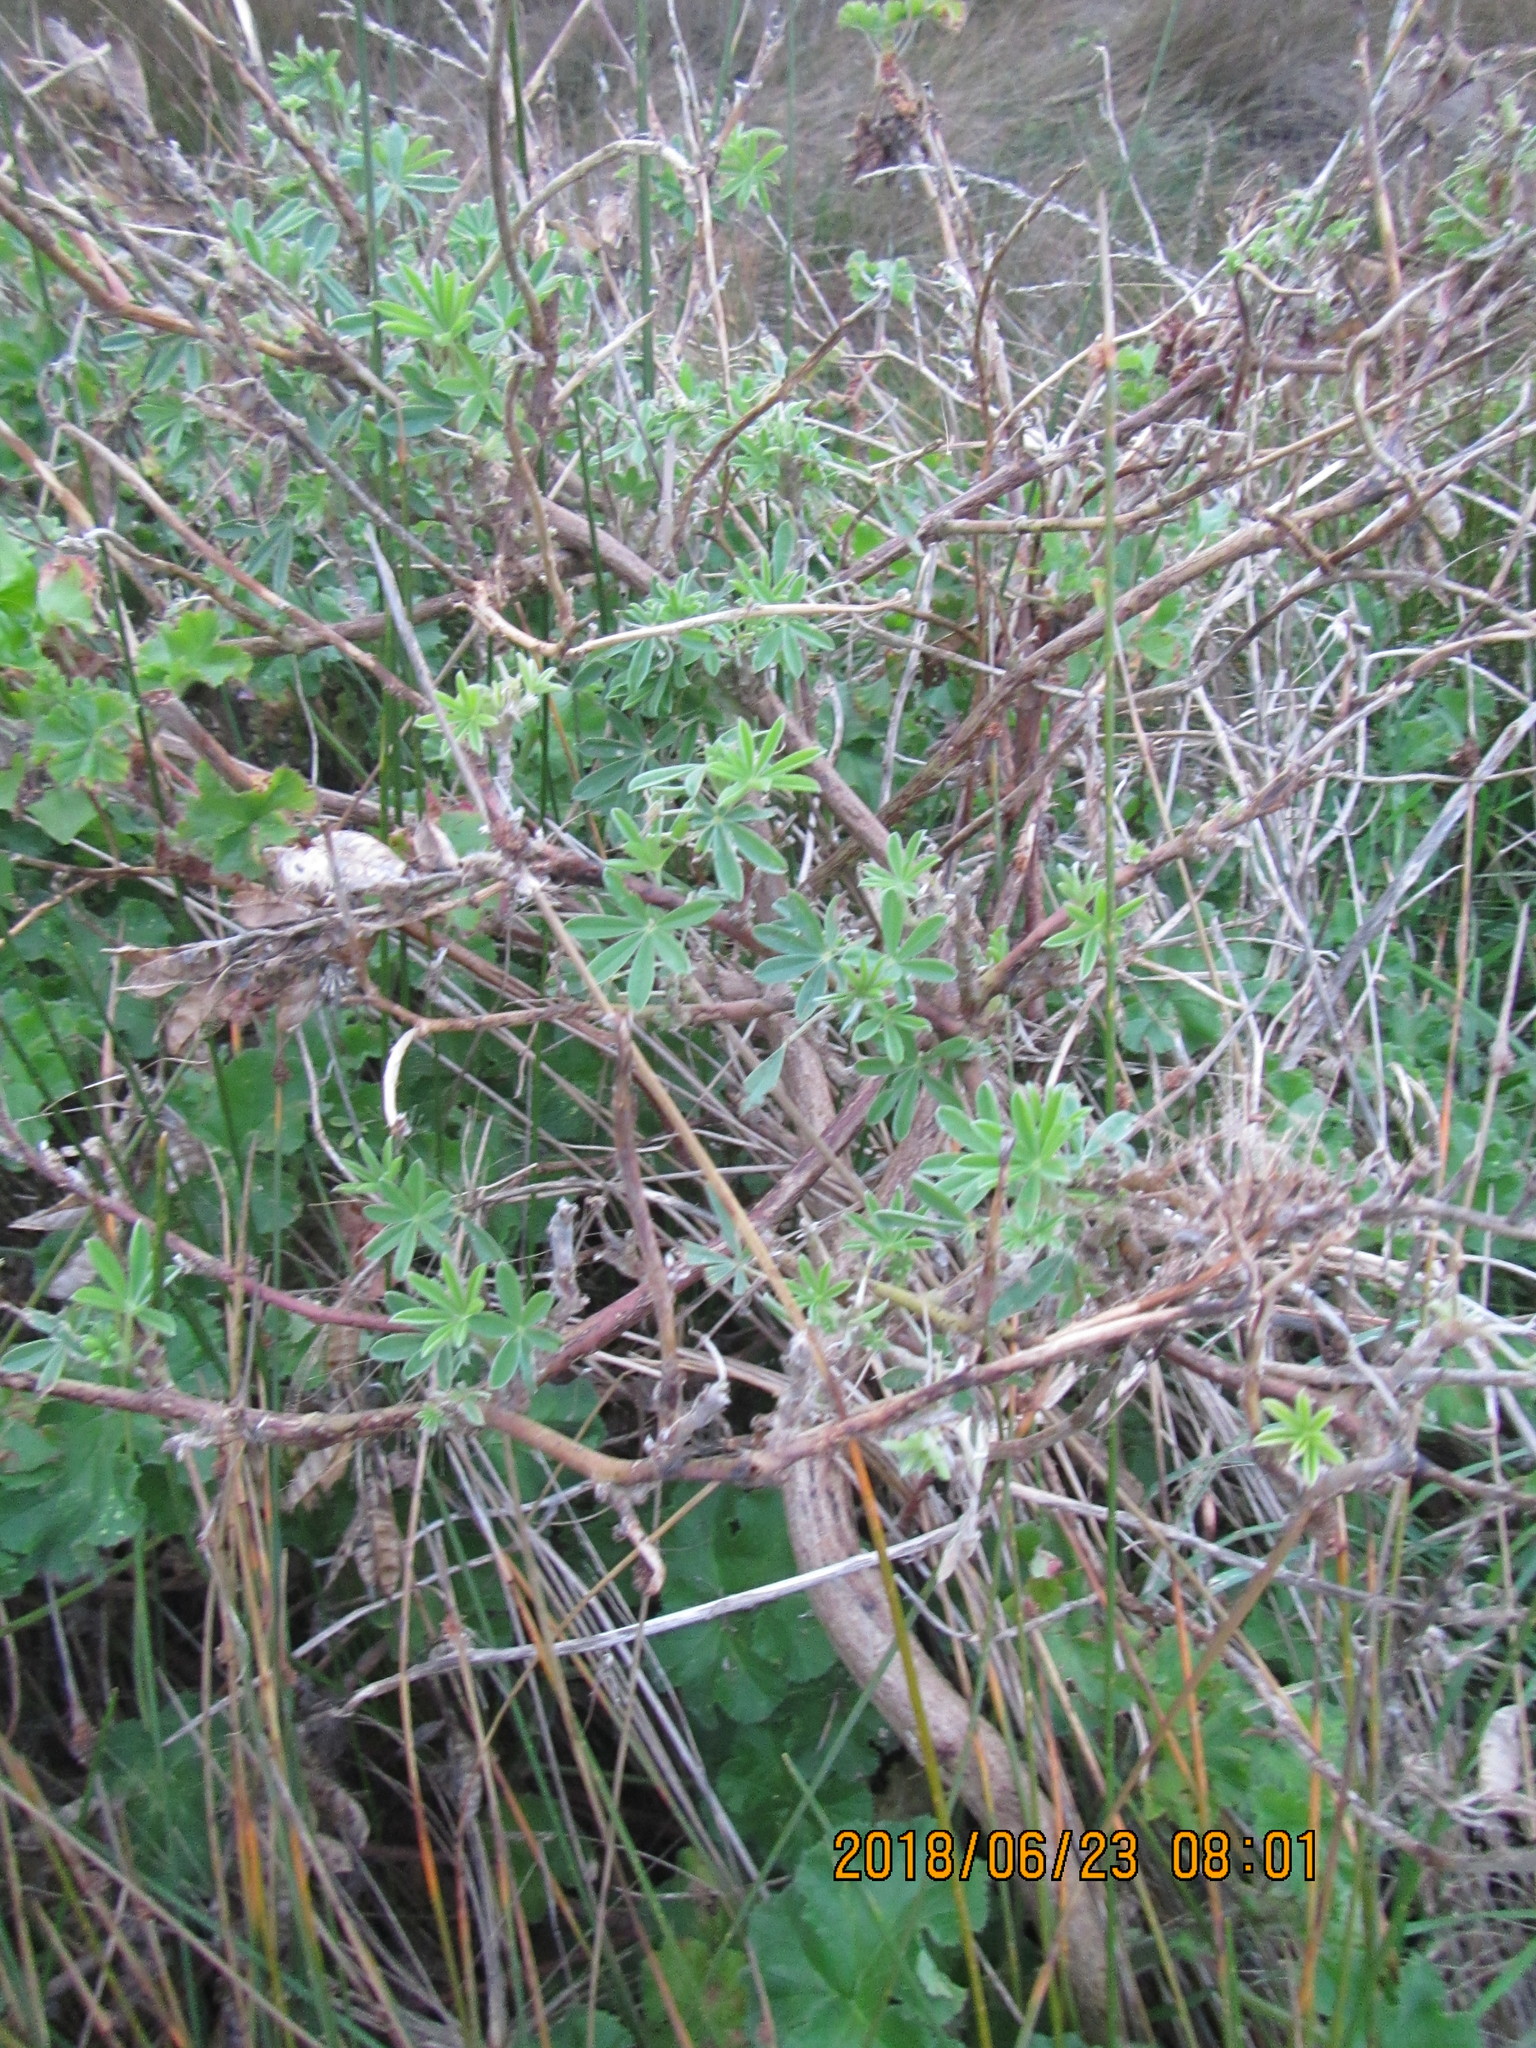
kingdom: Plantae
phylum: Tracheophyta
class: Magnoliopsida
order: Fabales
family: Fabaceae
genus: Lupinus
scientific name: Lupinus arboreus
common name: Yellow bush lupine
